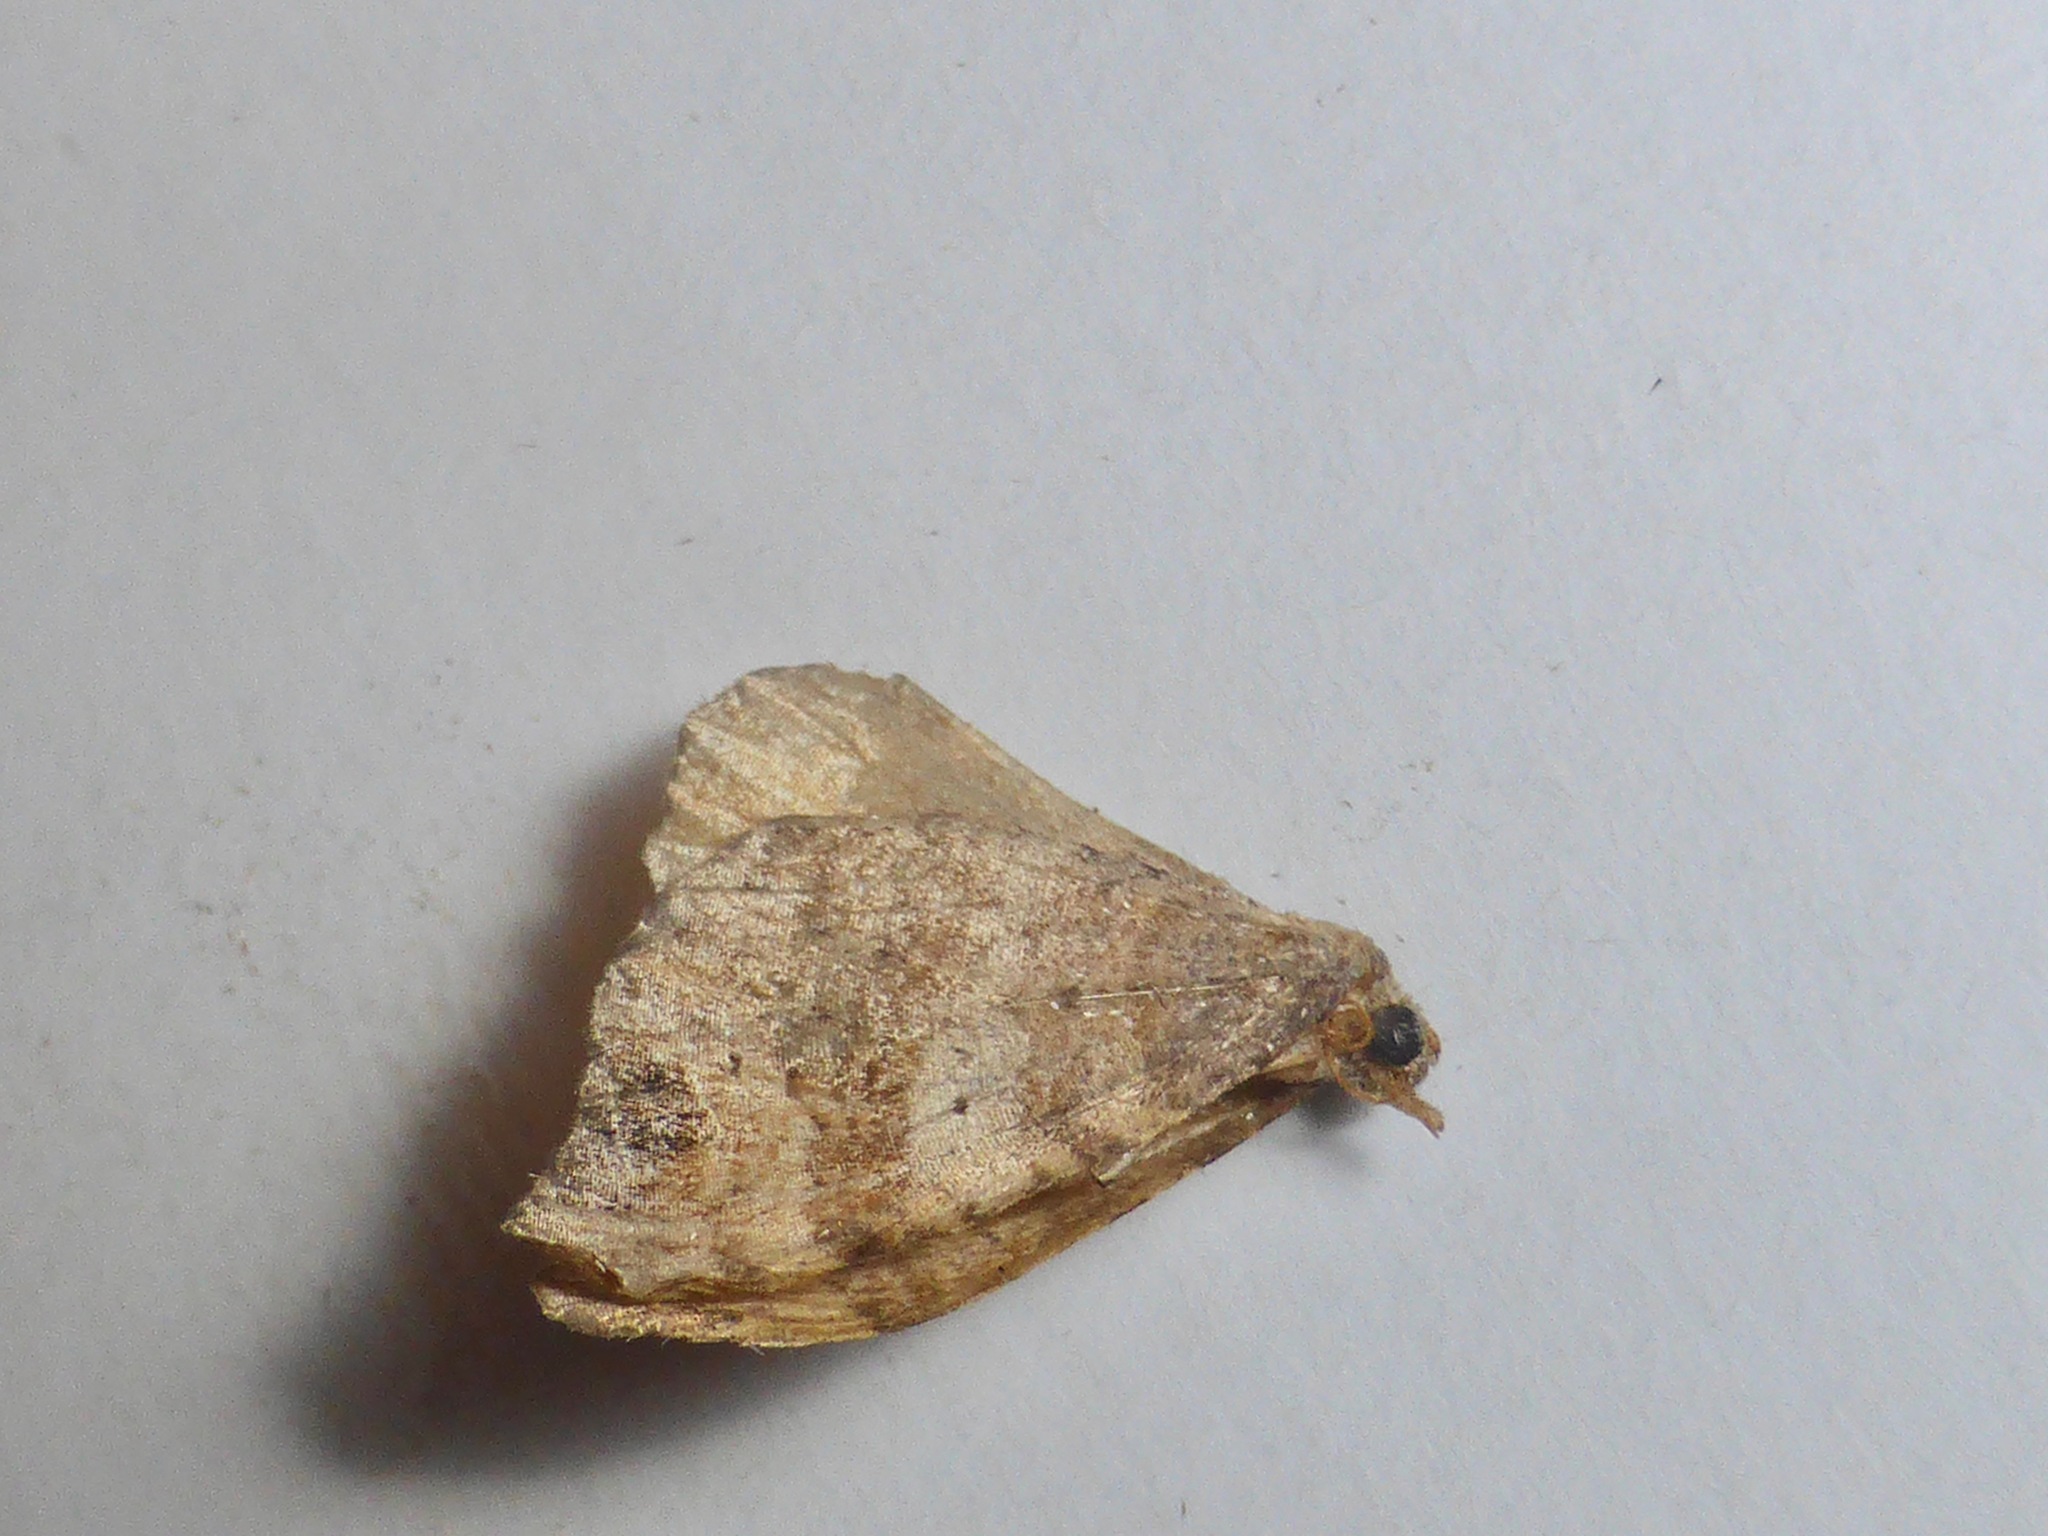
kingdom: Animalia
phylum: Arthropoda
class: Insecta
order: Lepidoptera
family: Geometridae
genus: Homodotis
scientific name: Homodotis megaspilata
